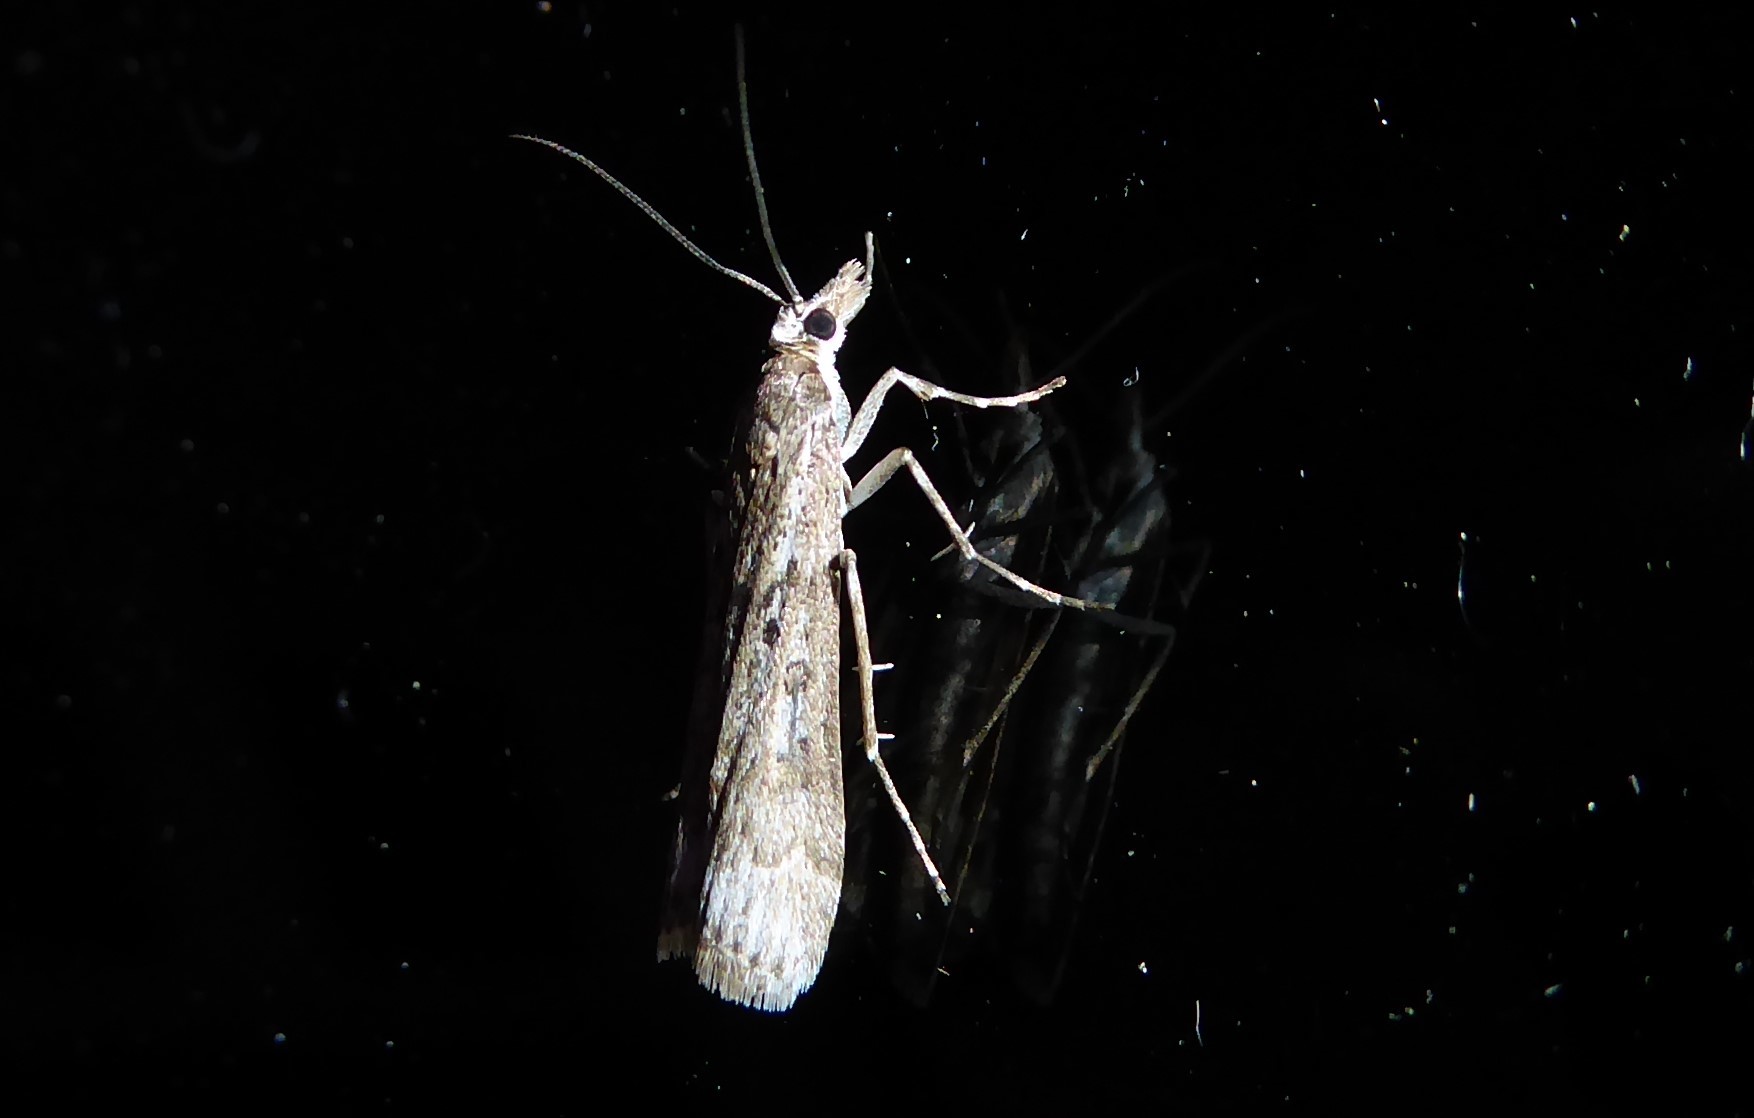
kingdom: Animalia
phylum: Arthropoda
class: Insecta
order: Lepidoptera
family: Crambidae
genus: Eudonia
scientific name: Eudonia leptalea
